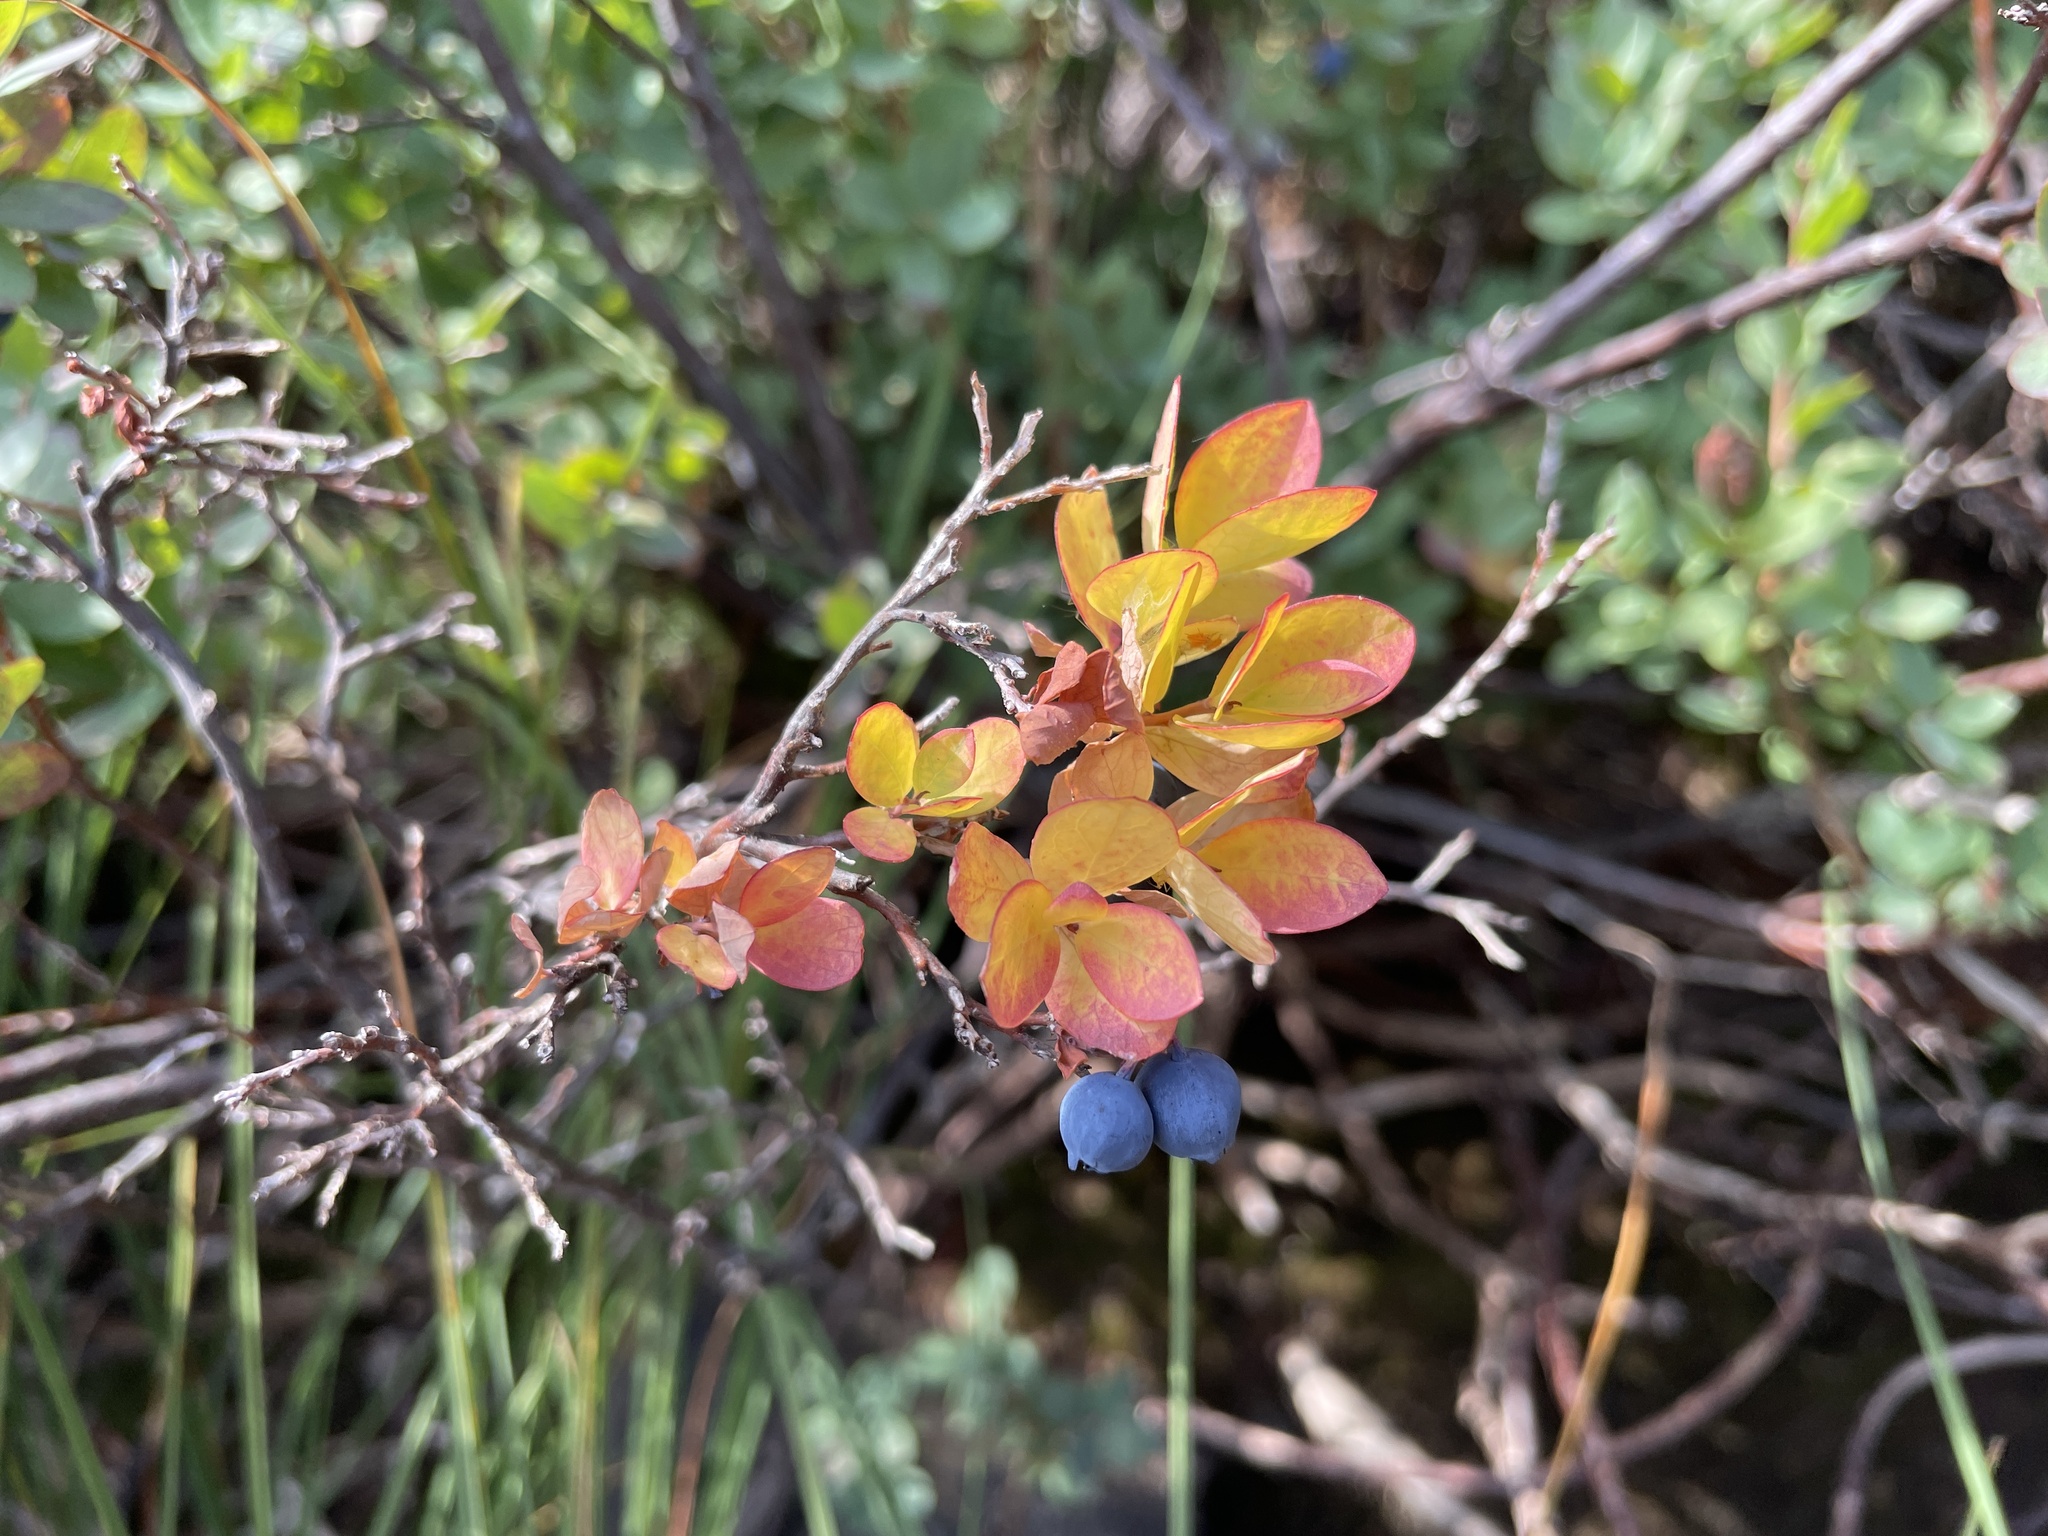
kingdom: Plantae
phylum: Tracheophyta
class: Magnoliopsida
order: Ericales
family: Ericaceae
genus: Vaccinium
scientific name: Vaccinium uliginosum
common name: Bog bilberry
